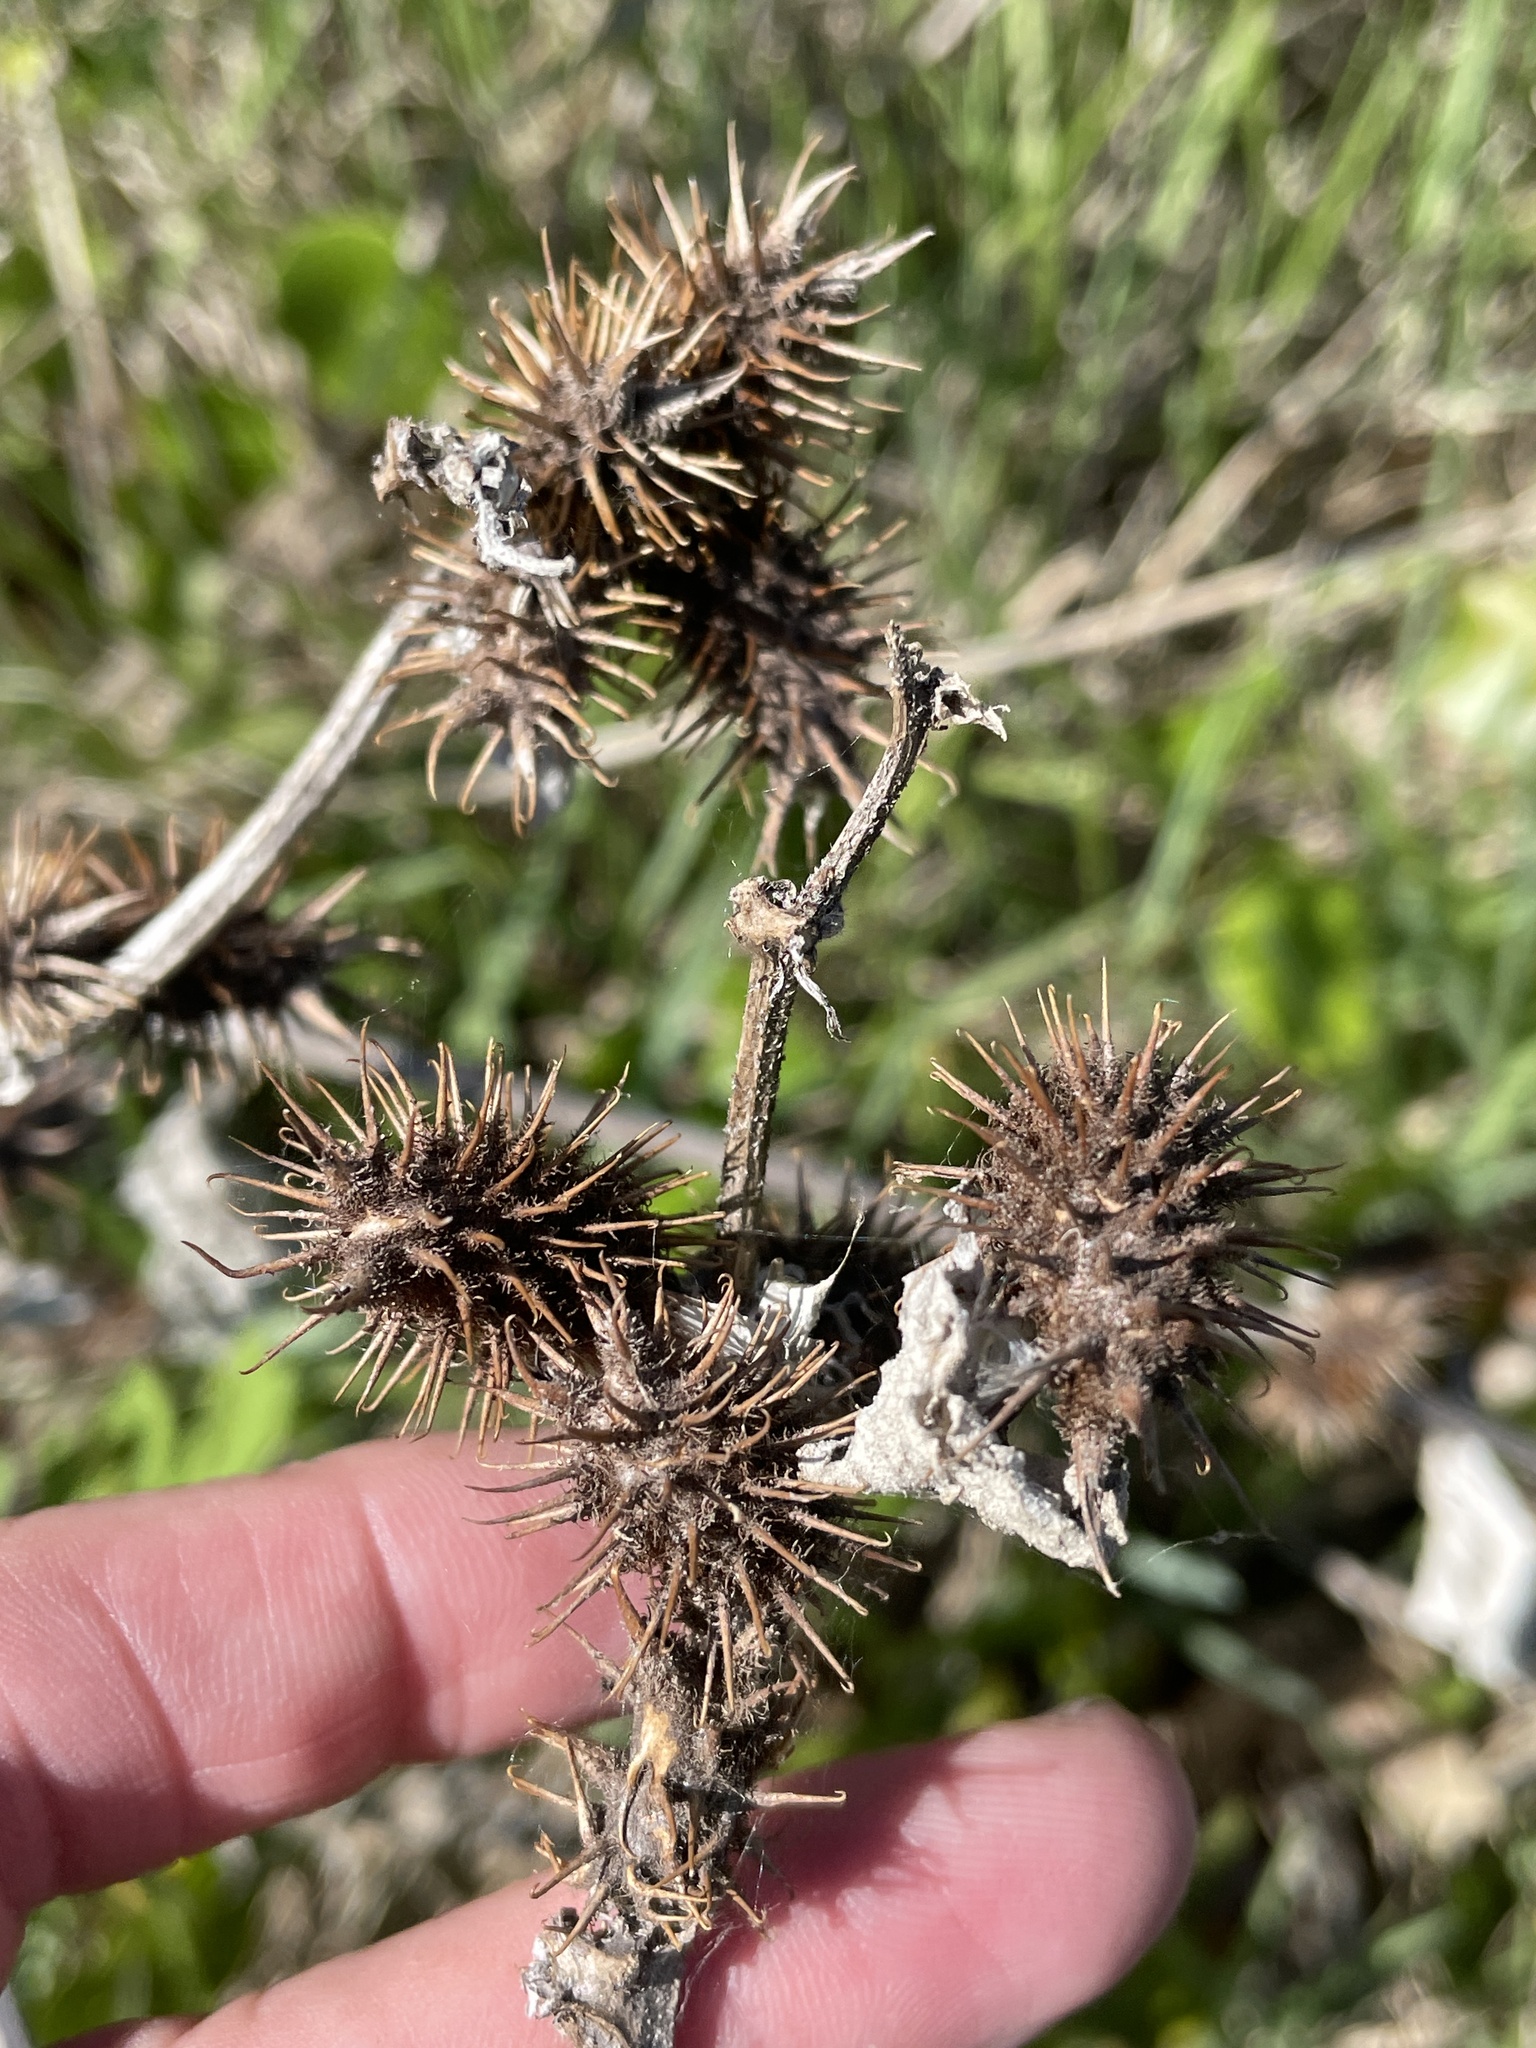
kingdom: Plantae
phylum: Tracheophyta
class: Magnoliopsida
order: Asterales
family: Asteraceae
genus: Xanthium
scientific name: Xanthium strumarium
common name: Rough cocklebur
